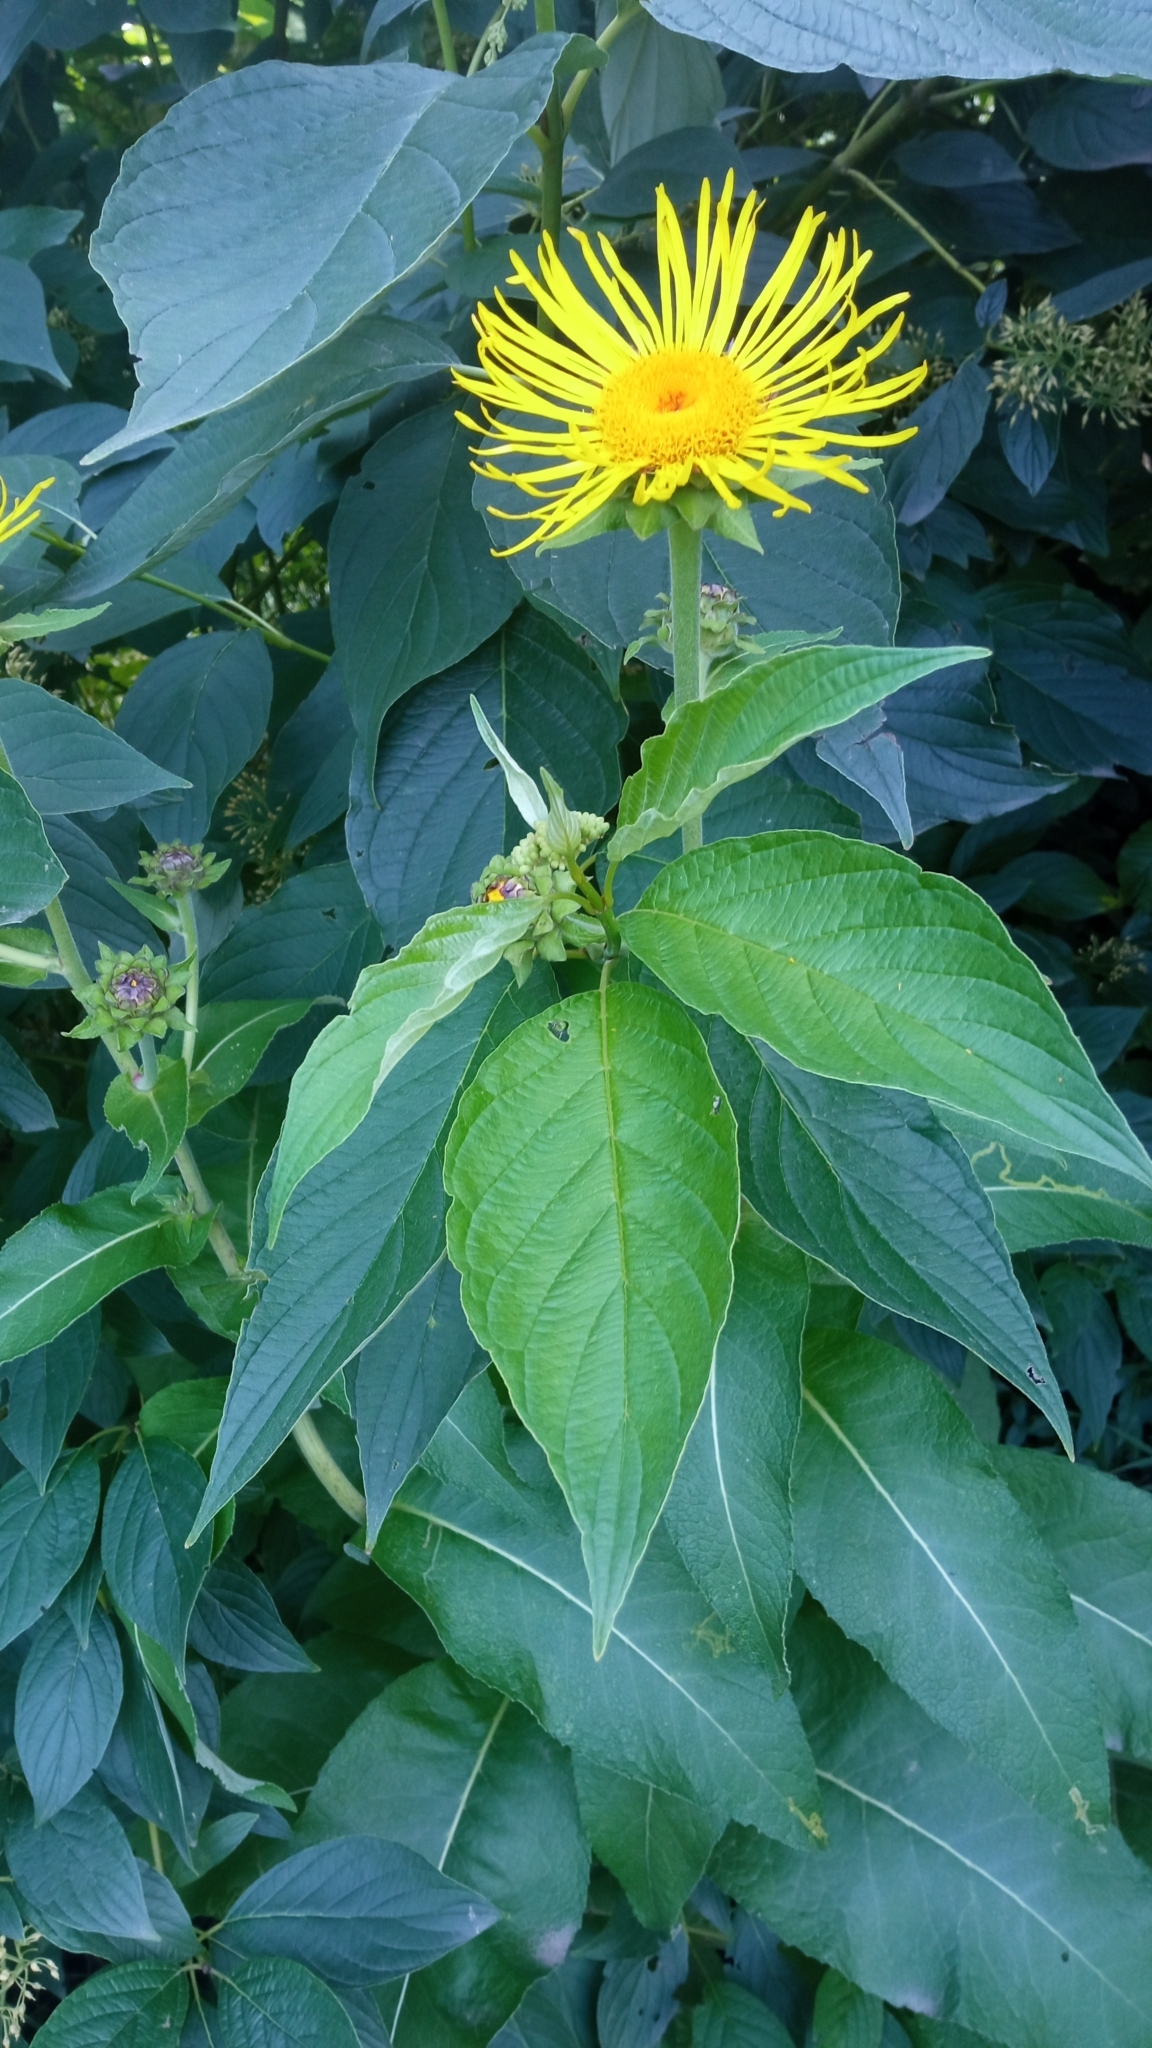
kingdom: Plantae
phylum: Tracheophyta
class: Magnoliopsida
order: Asterales
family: Asteraceae
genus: Inula
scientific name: Inula helenium
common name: Elecampane
